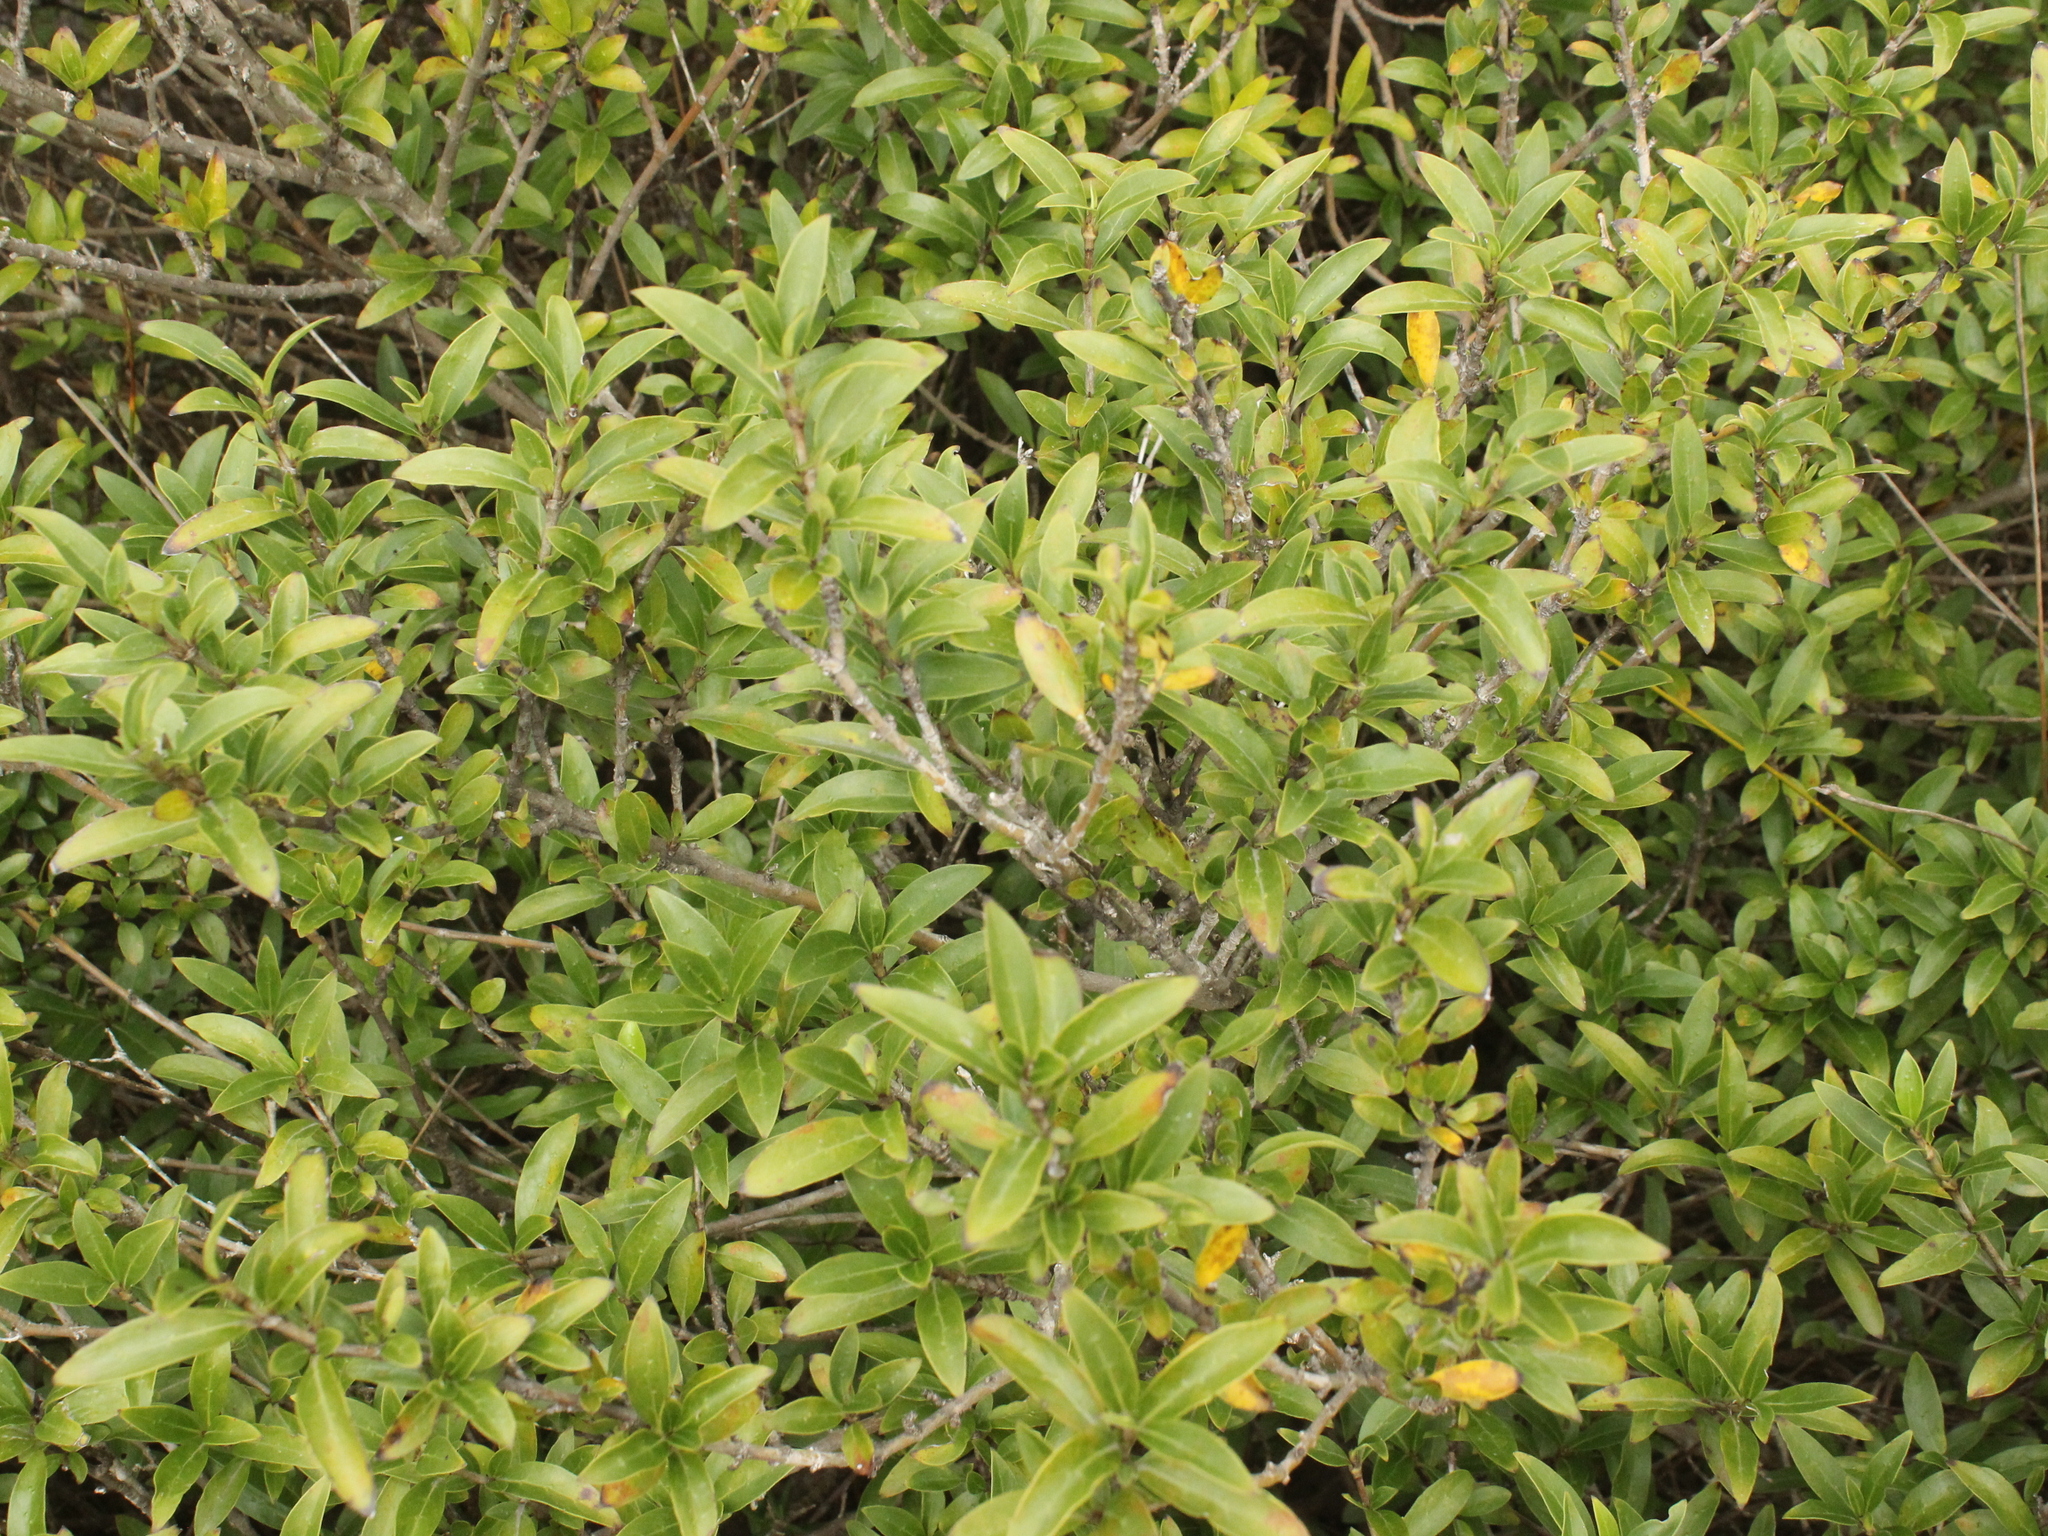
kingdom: Plantae
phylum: Tracheophyta
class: Magnoliopsida
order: Gentianales
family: Rubiaceae
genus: Coprosma
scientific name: Coprosma chathamica
